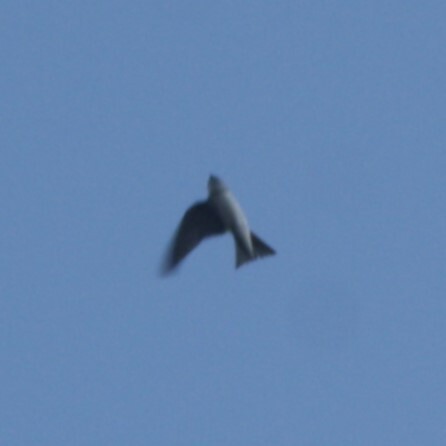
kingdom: Animalia
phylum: Chordata
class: Aves
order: Passeriformes
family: Hirundinidae
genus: Delichon
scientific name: Delichon urbicum
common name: Common house martin
